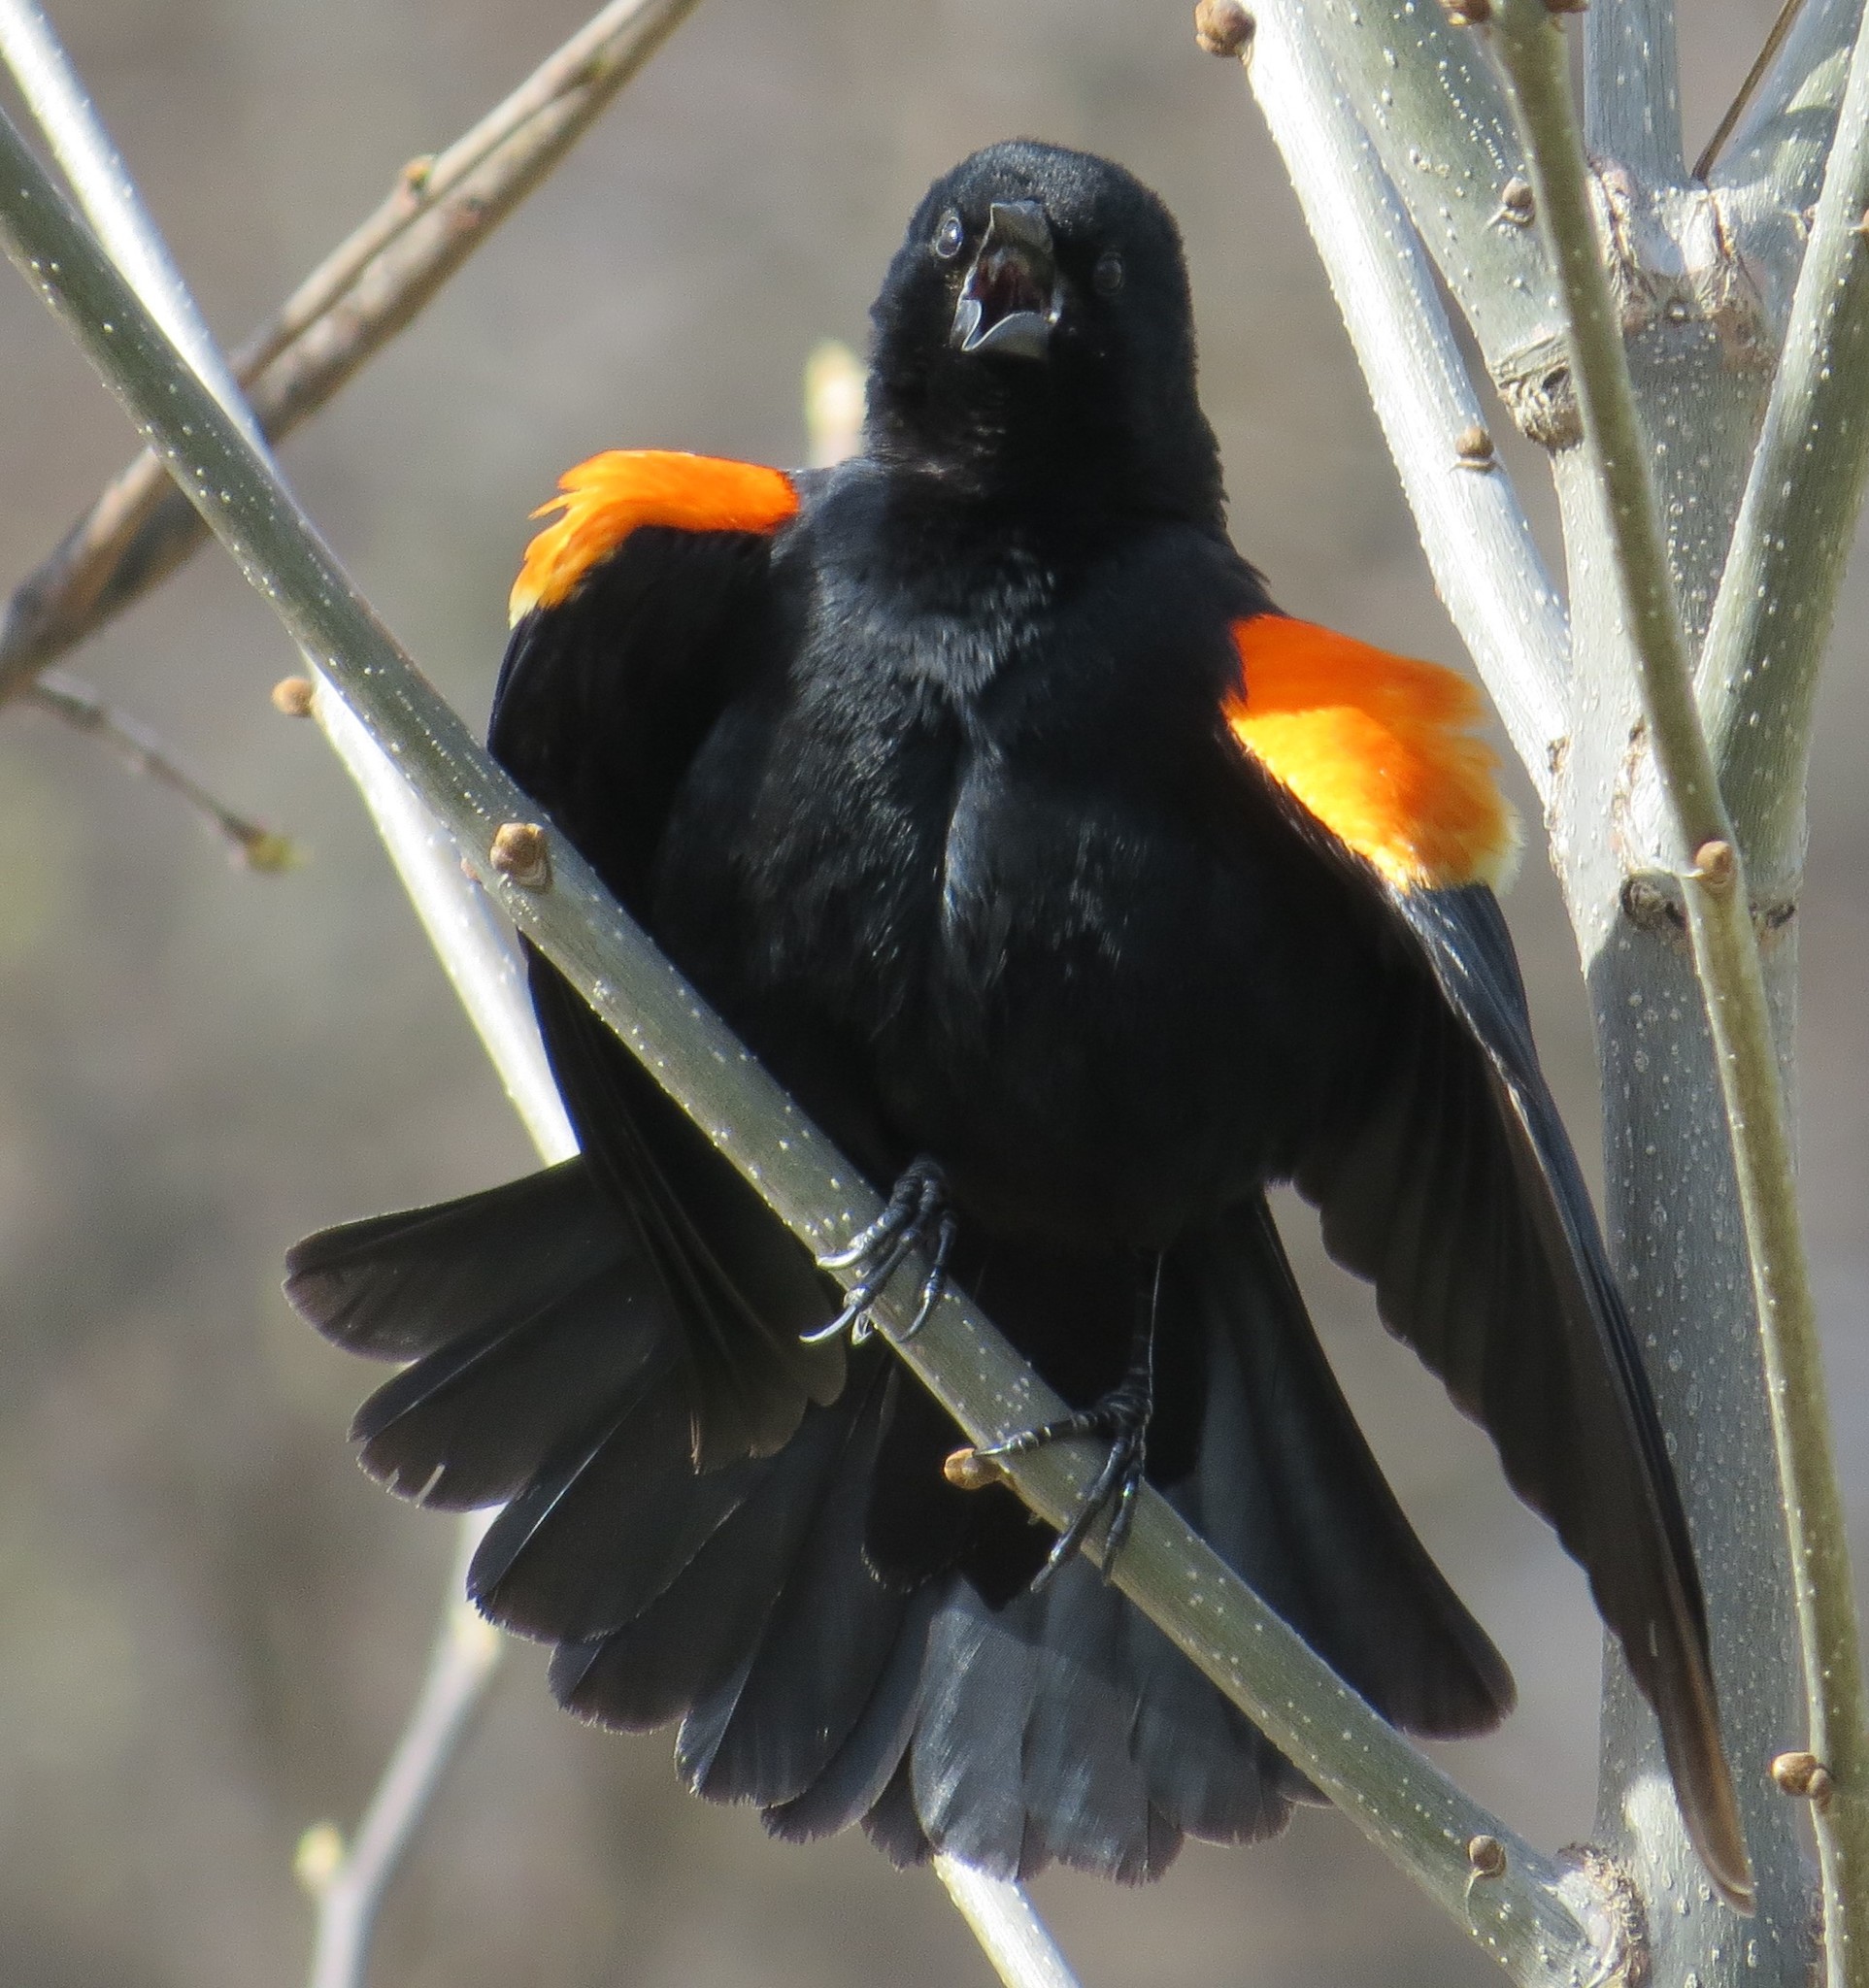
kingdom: Animalia
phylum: Chordata
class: Aves
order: Passeriformes
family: Icteridae
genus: Agelaius
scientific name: Agelaius phoeniceus
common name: Red-winged blackbird
